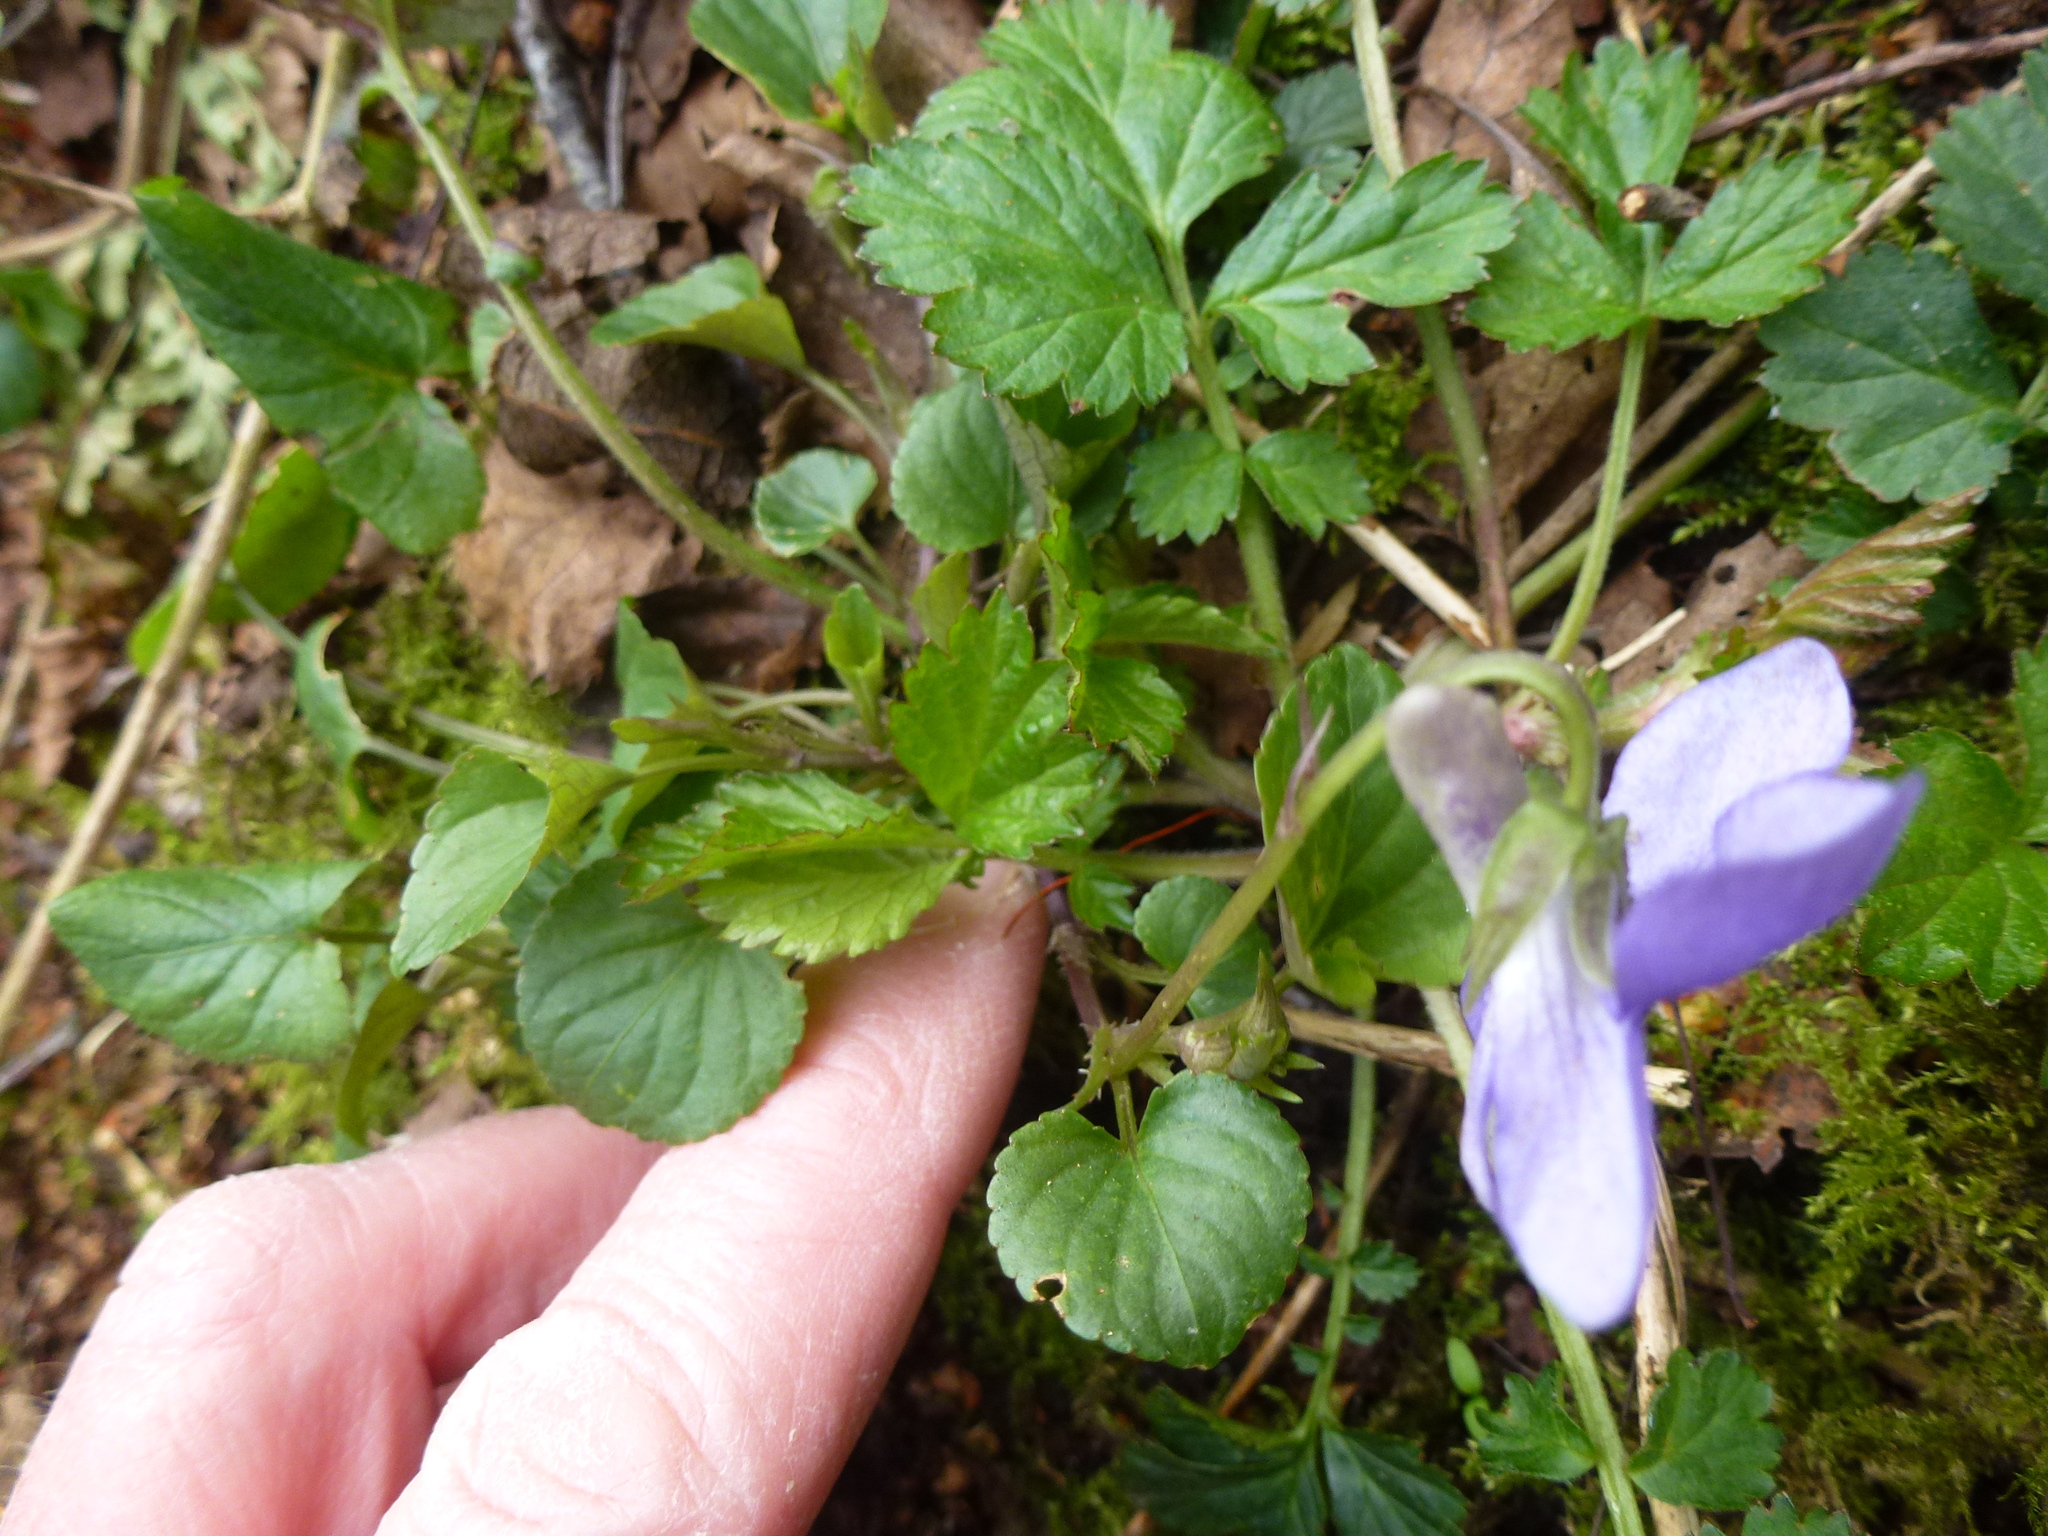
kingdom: Plantae
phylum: Tracheophyta
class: Magnoliopsida
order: Malpighiales
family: Violaceae
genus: Viola
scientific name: Viola riviniana
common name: Common dog-violet
